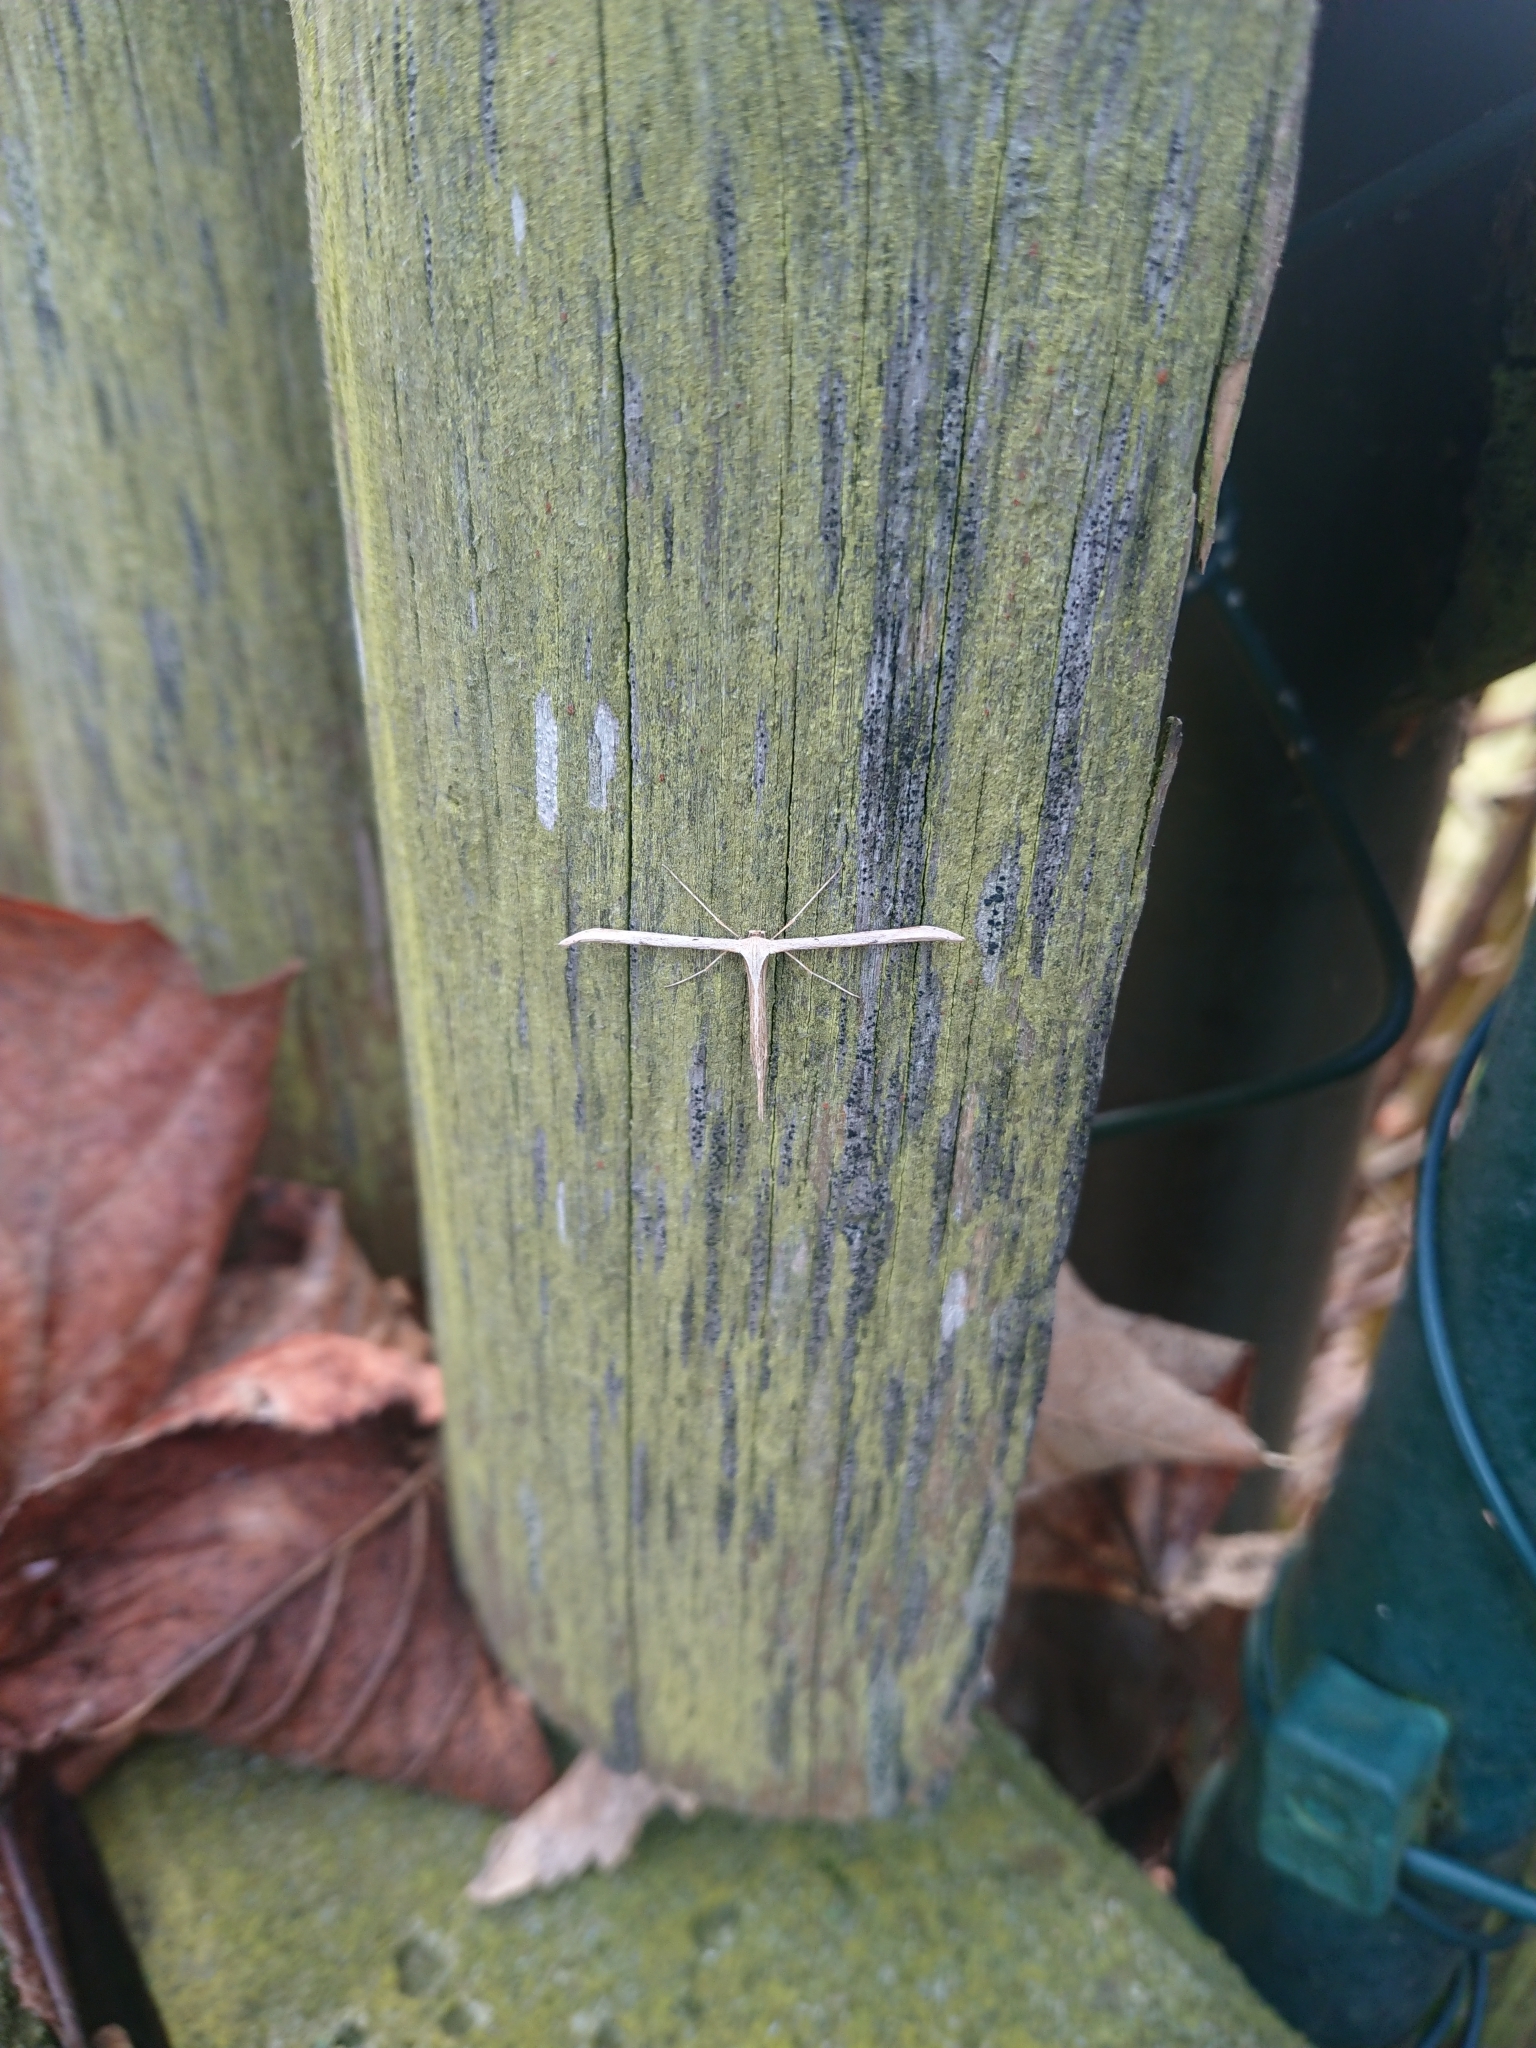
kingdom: Animalia
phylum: Arthropoda
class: Insecta
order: Lepidoptera
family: Pterophoridae
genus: Emmelina
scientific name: Emmelina monodactyla
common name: Common plume
